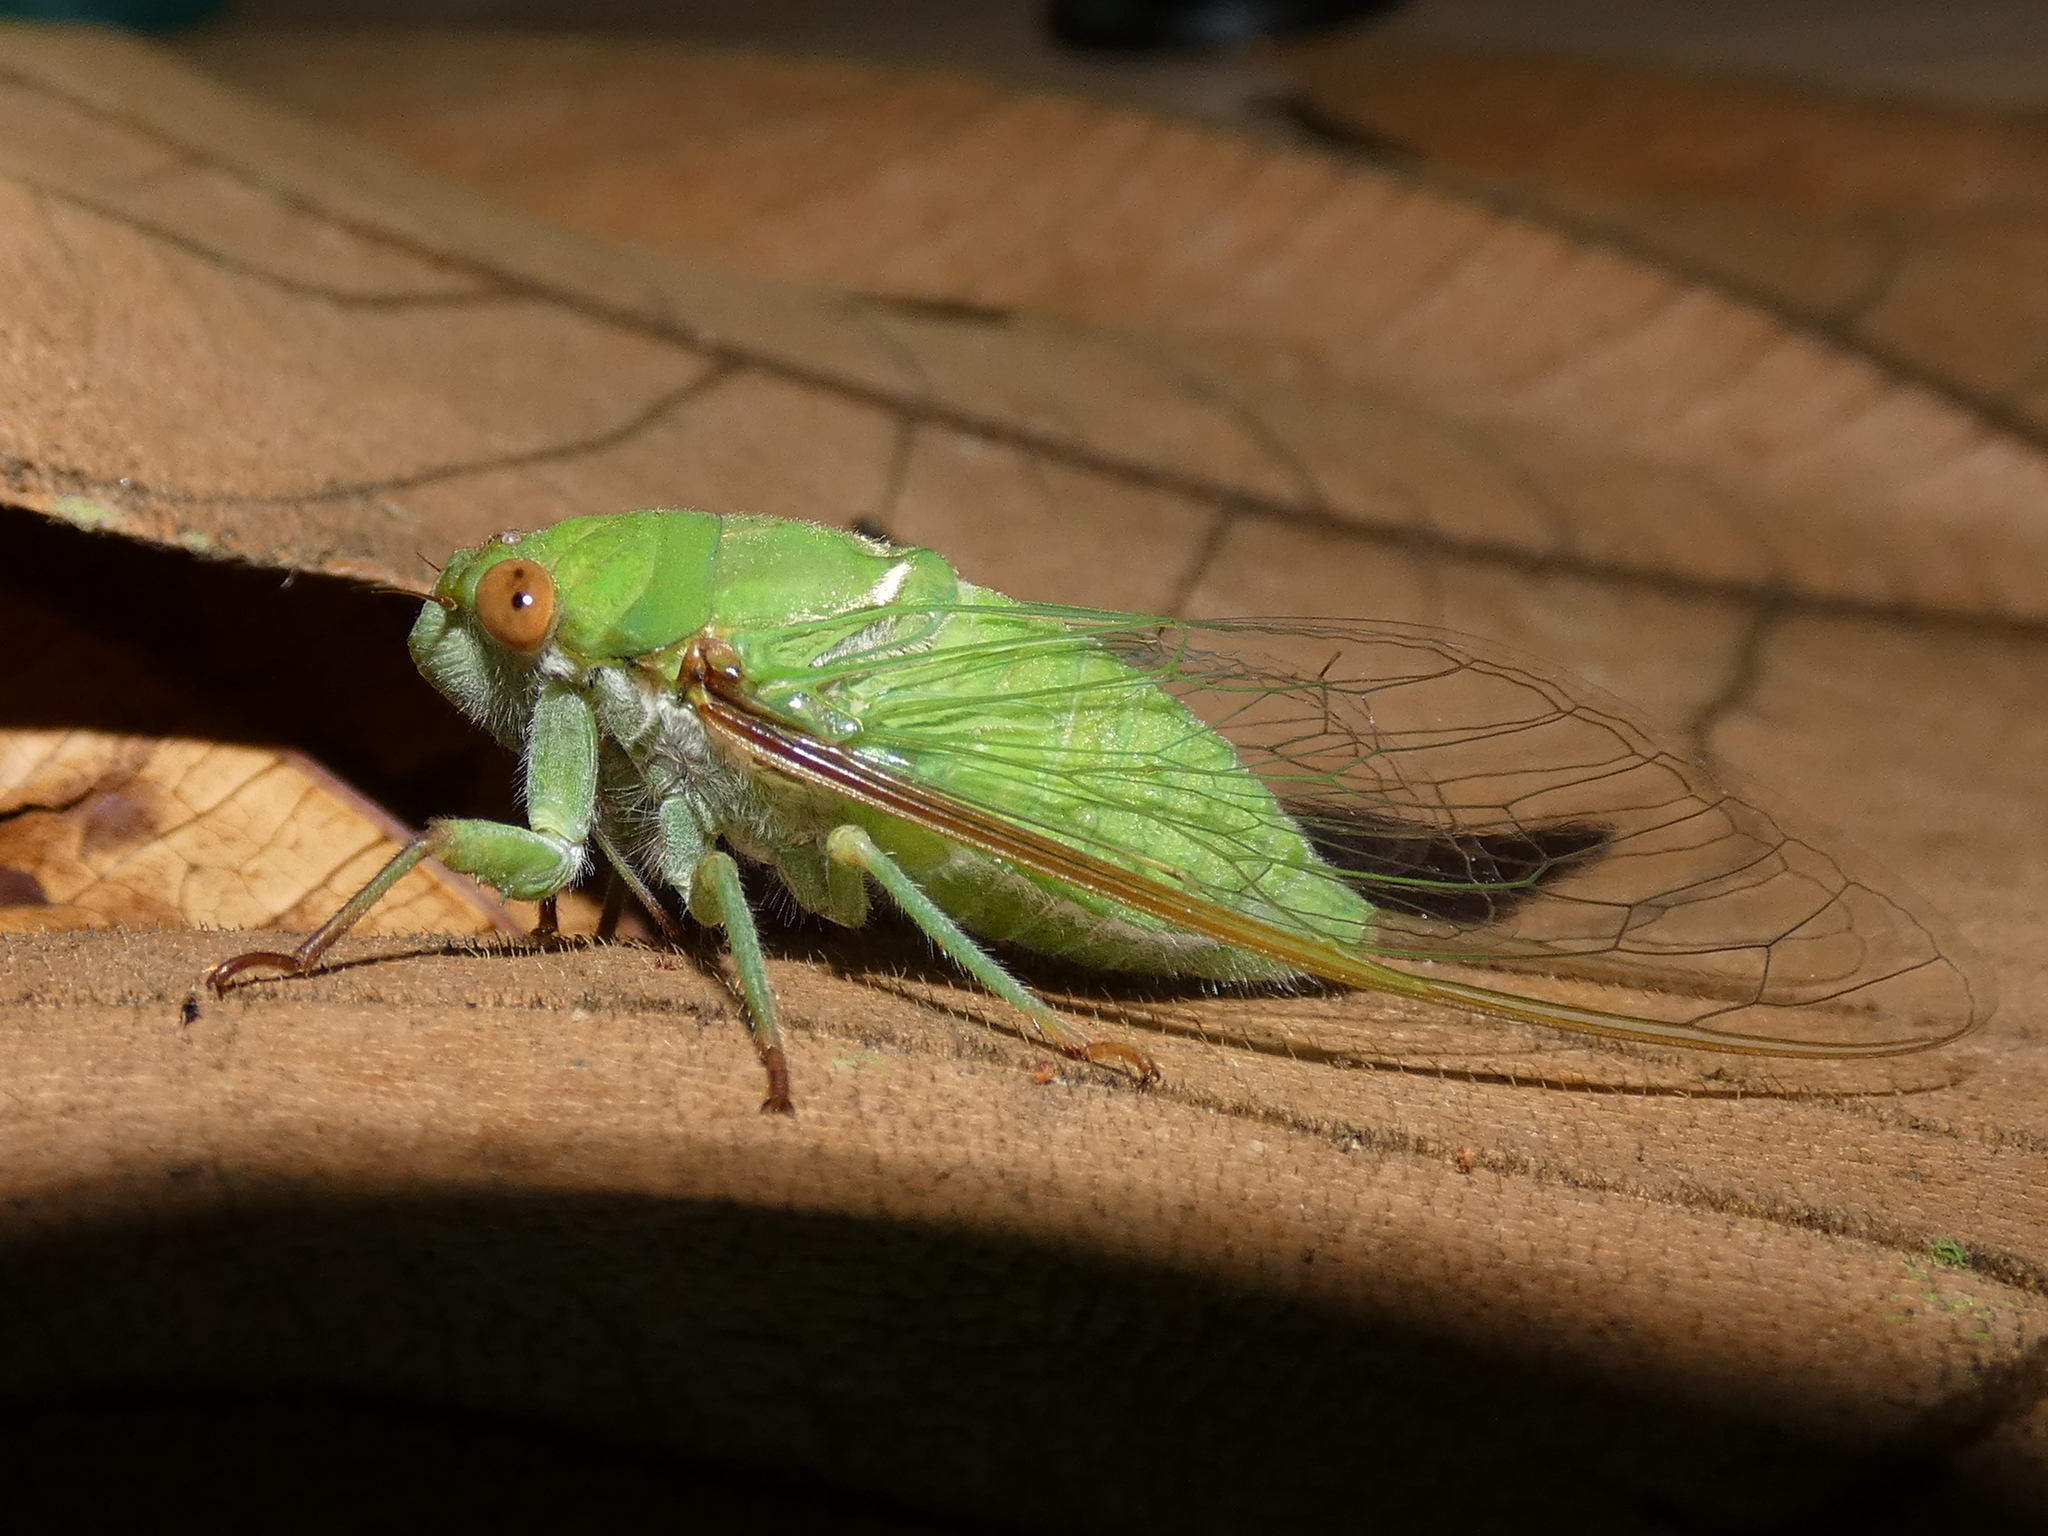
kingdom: Animalia
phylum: Arthropoda
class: Insecta
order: Hemiptera
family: Cicadidae
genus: Dundubia
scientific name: Dundubia vaginata
